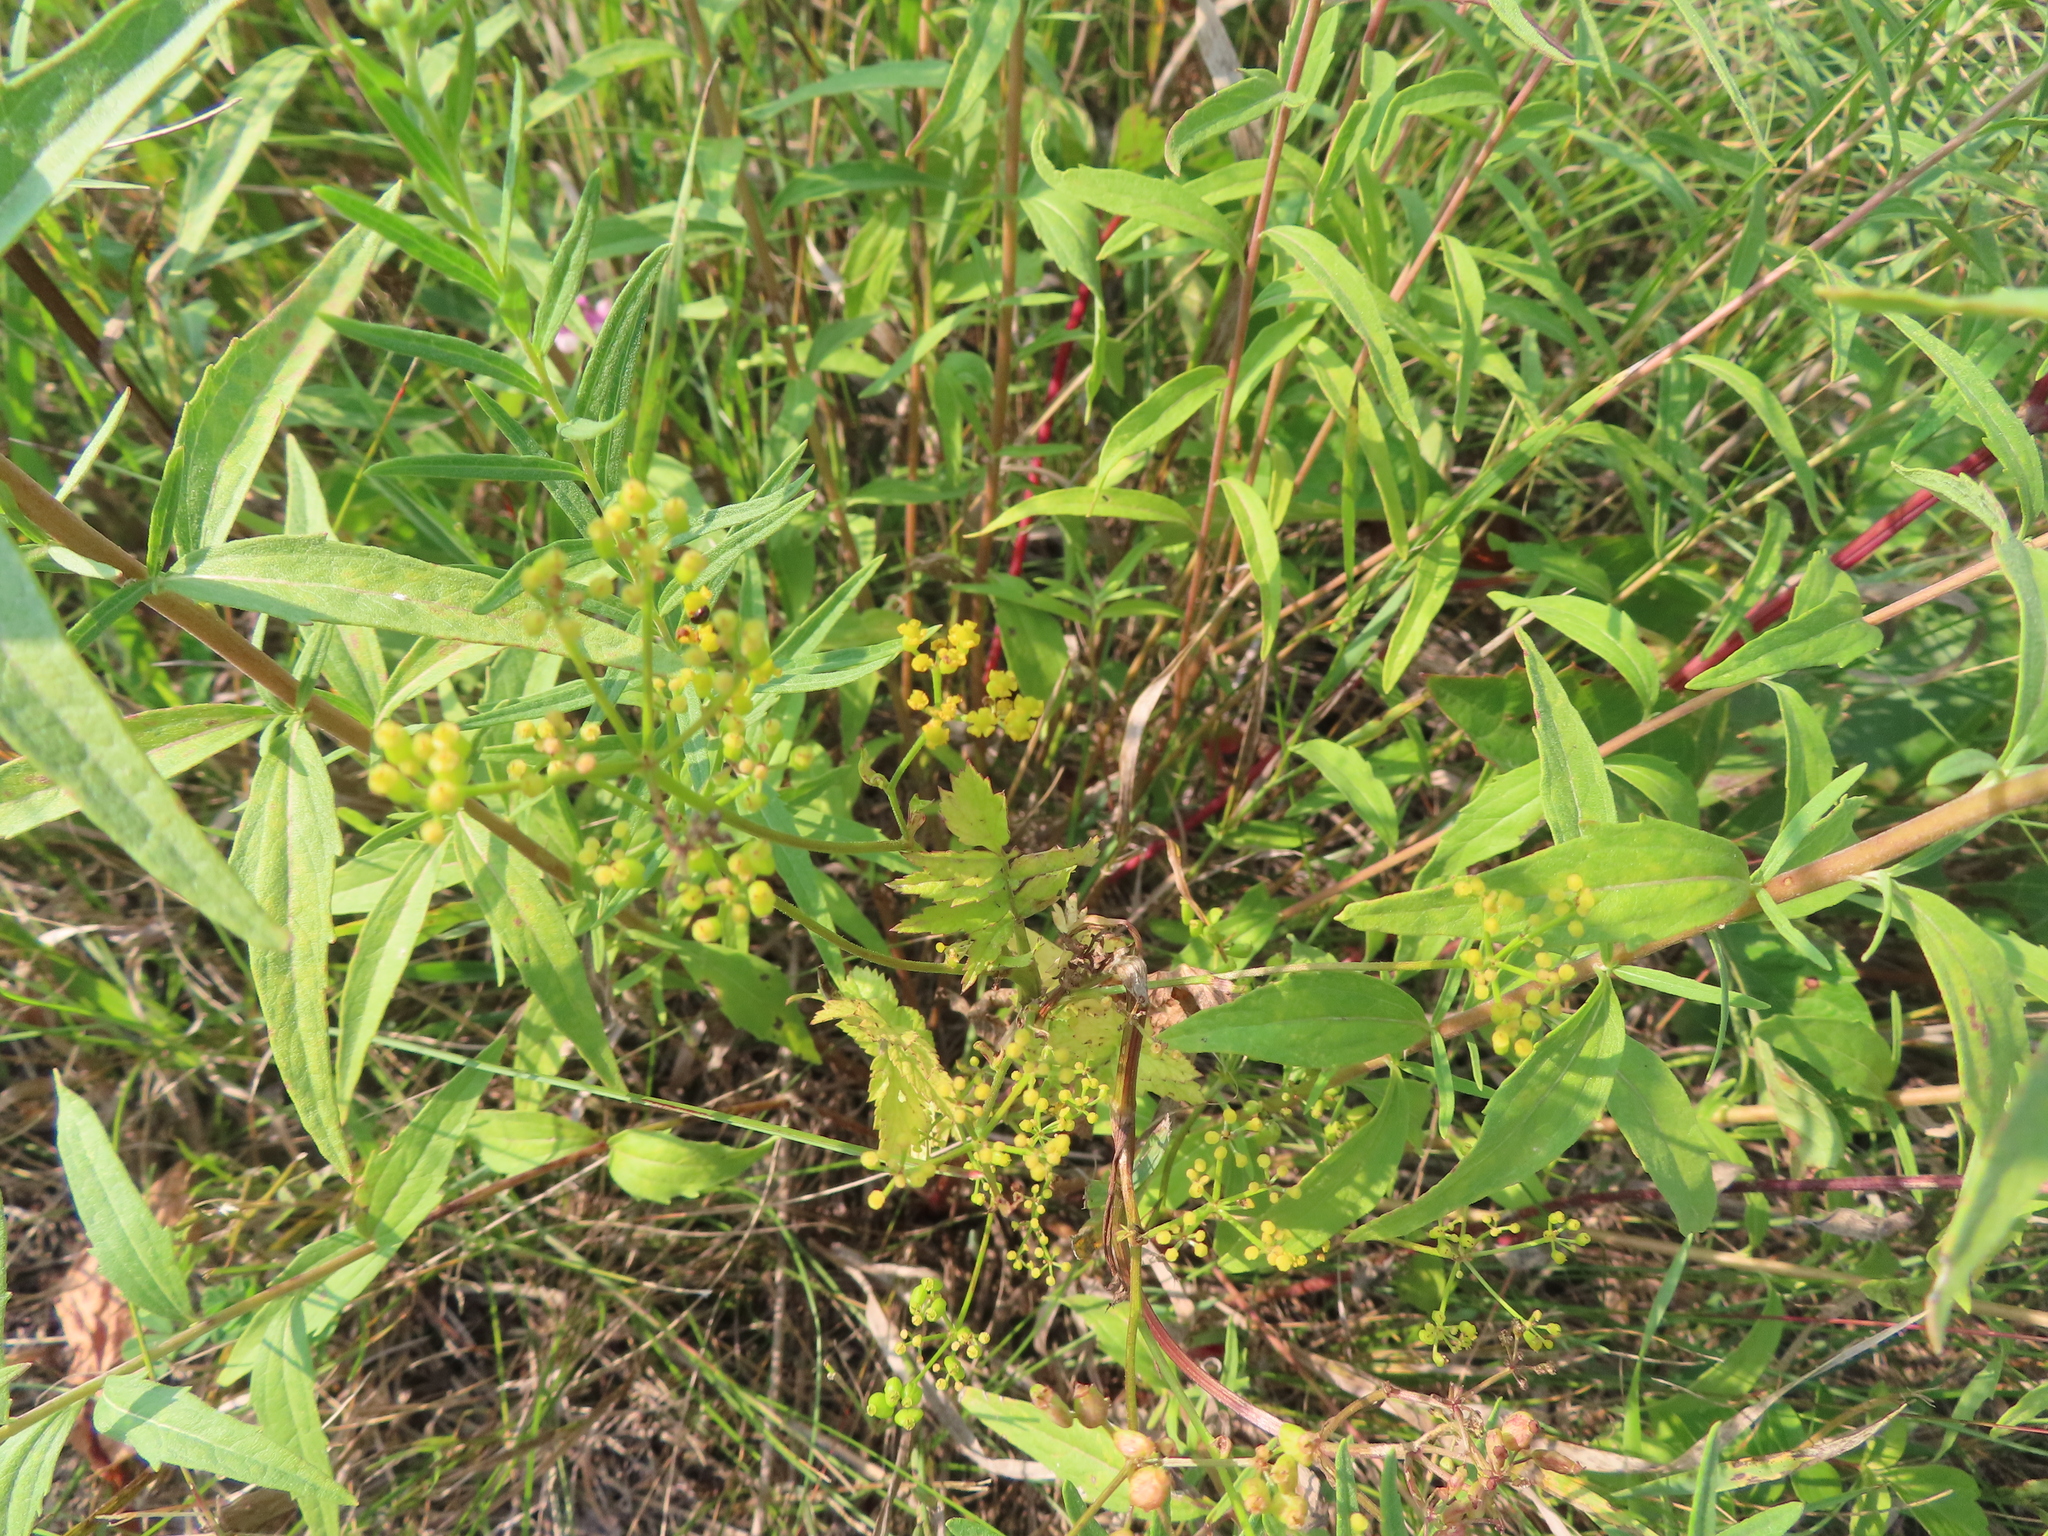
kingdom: Plantae
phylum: Tracheophyta
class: Magnoliopsida
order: Apiales
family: Apiaceae
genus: Pastinaca
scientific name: Pastinaca sativa
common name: Wild parsnip
